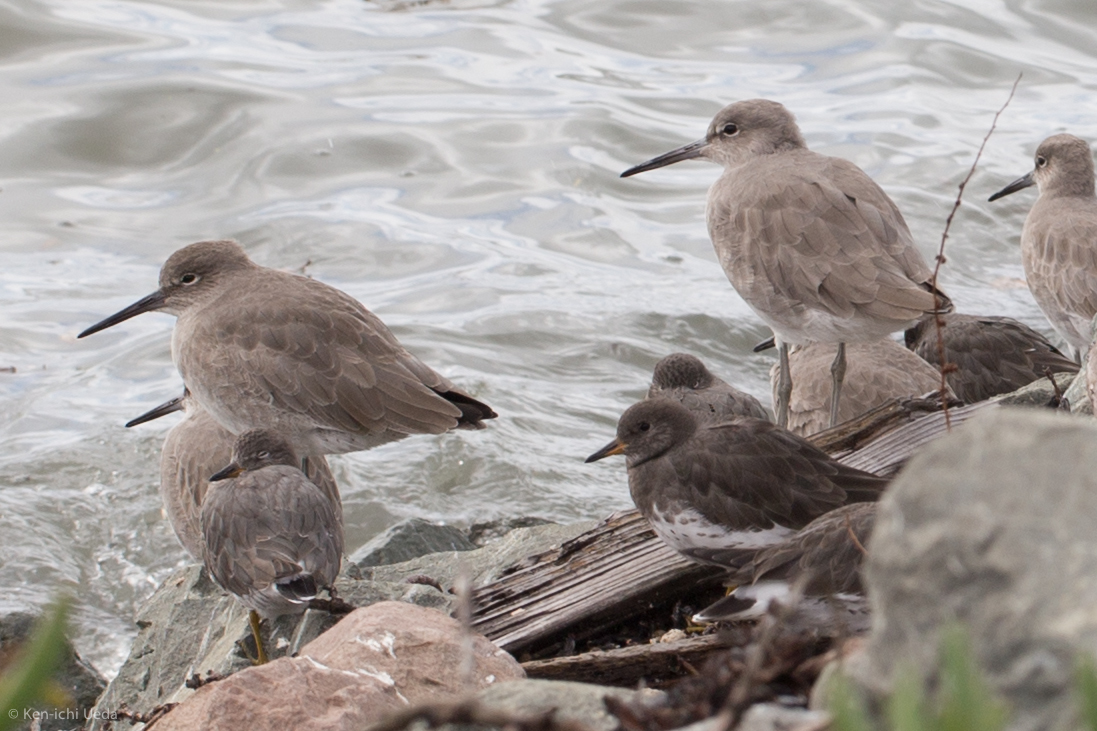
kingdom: Animalia
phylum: Chordata
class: Aves
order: Charadriiformes
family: Scolopacidae
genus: Tringa
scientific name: Tringa semipalmata
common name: Willet
